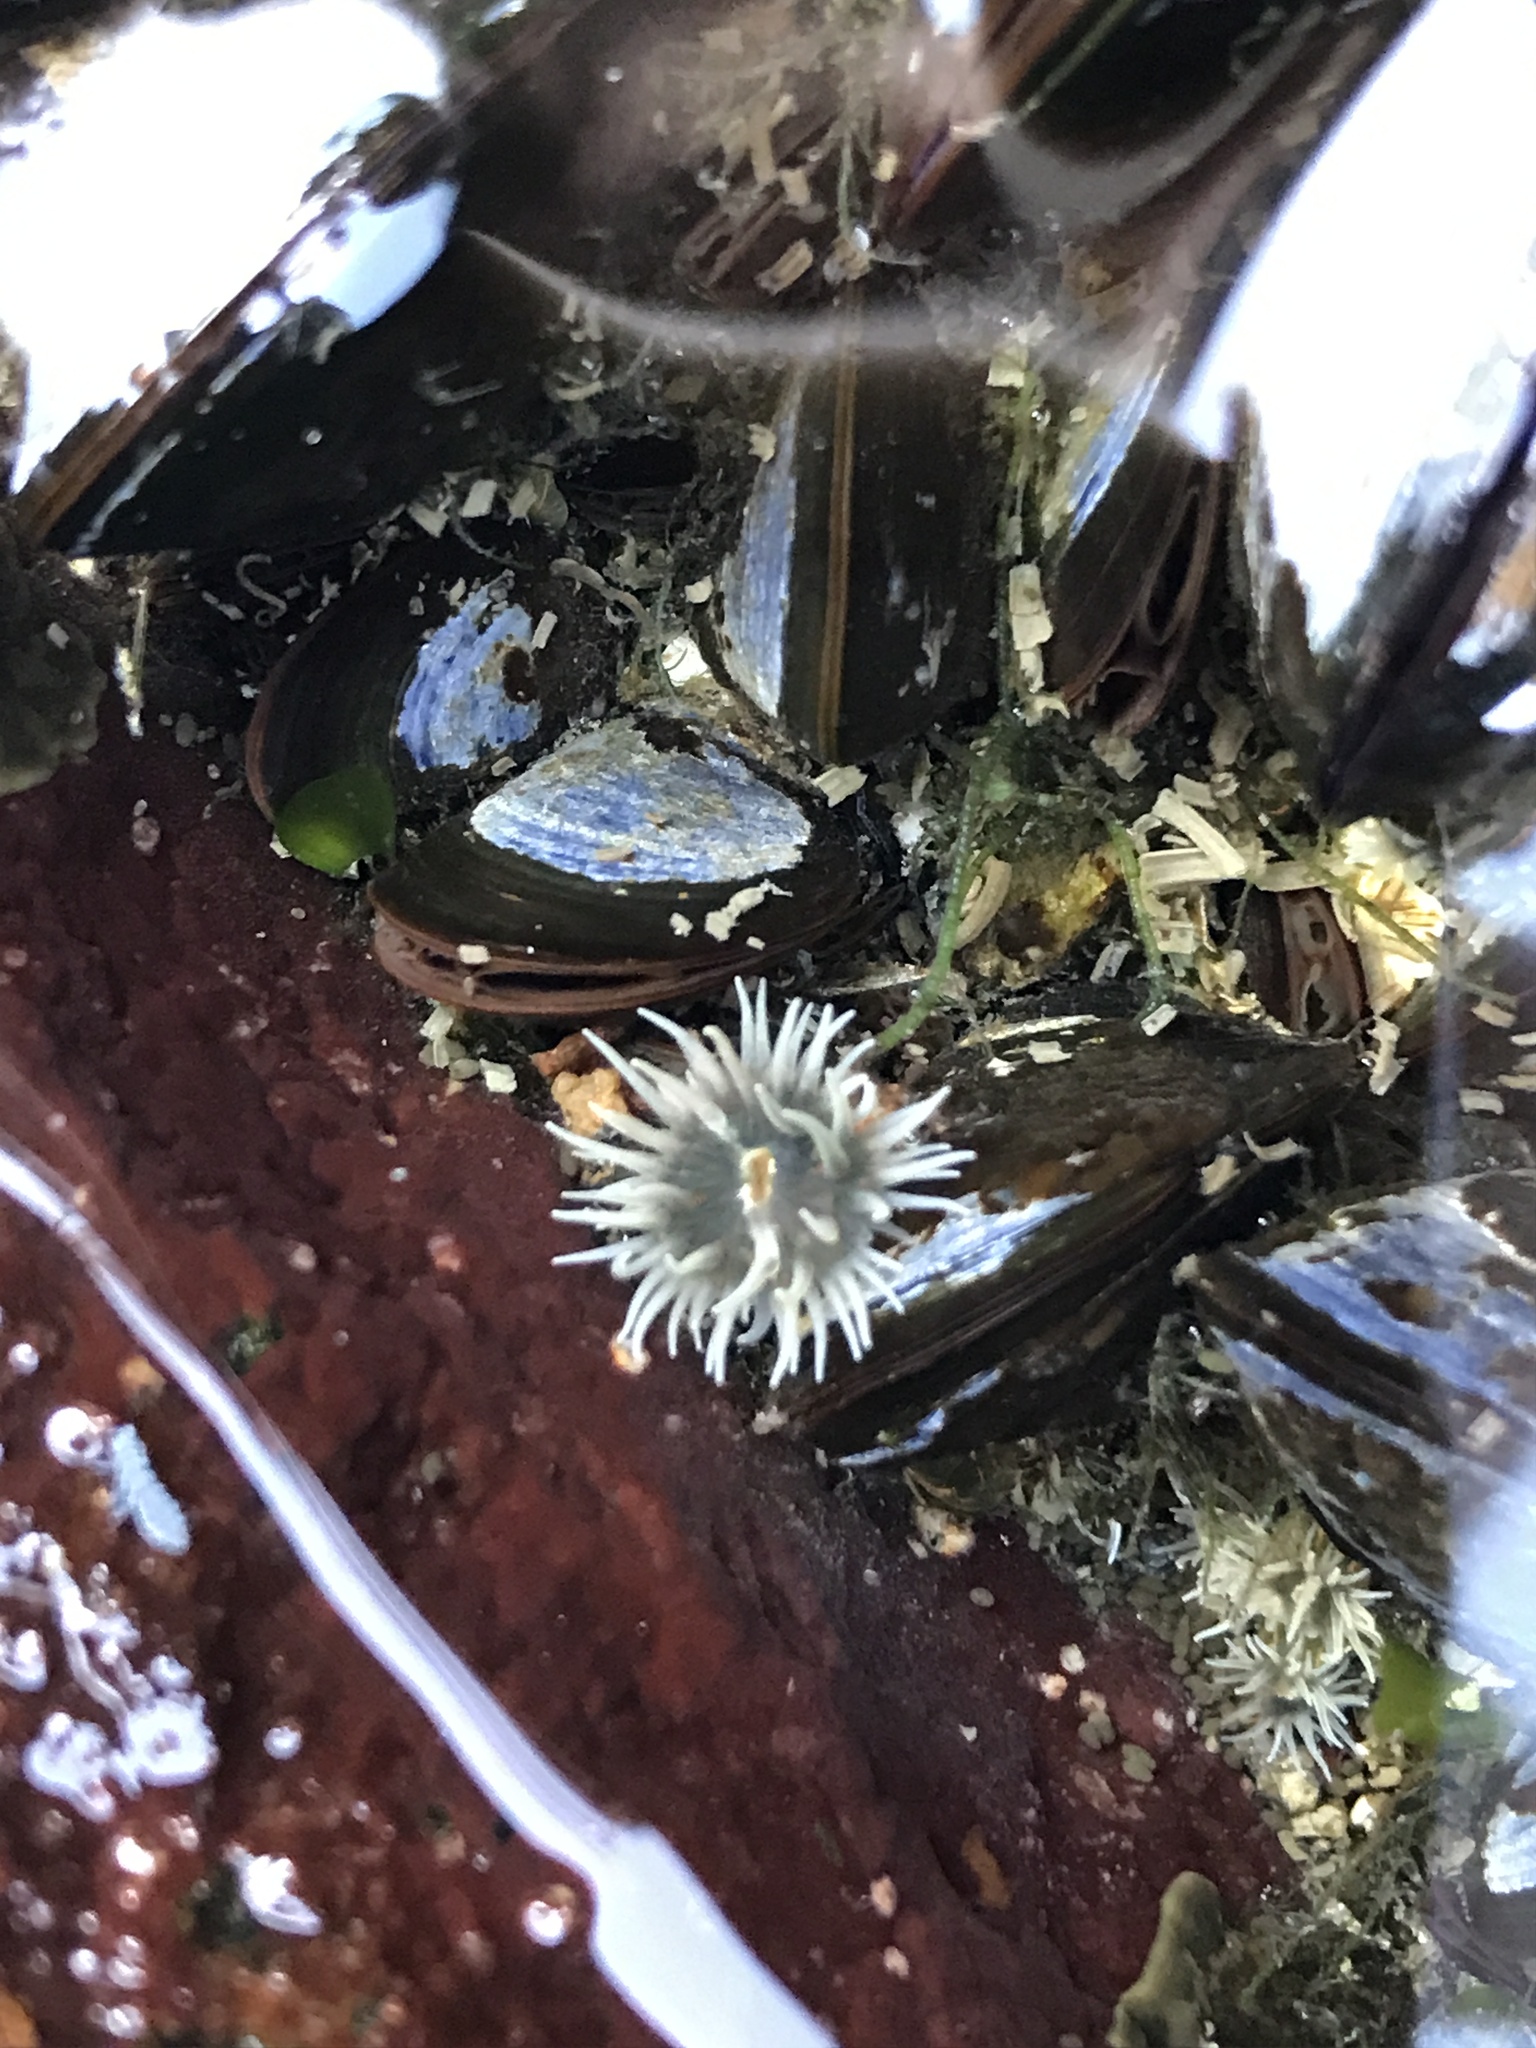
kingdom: Animalia
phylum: Cnidaria
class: Anthozoa
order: Actiniaria
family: Diadumenidae
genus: Diadumene
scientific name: Diadumene lineata
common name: Orange-striped anemone
